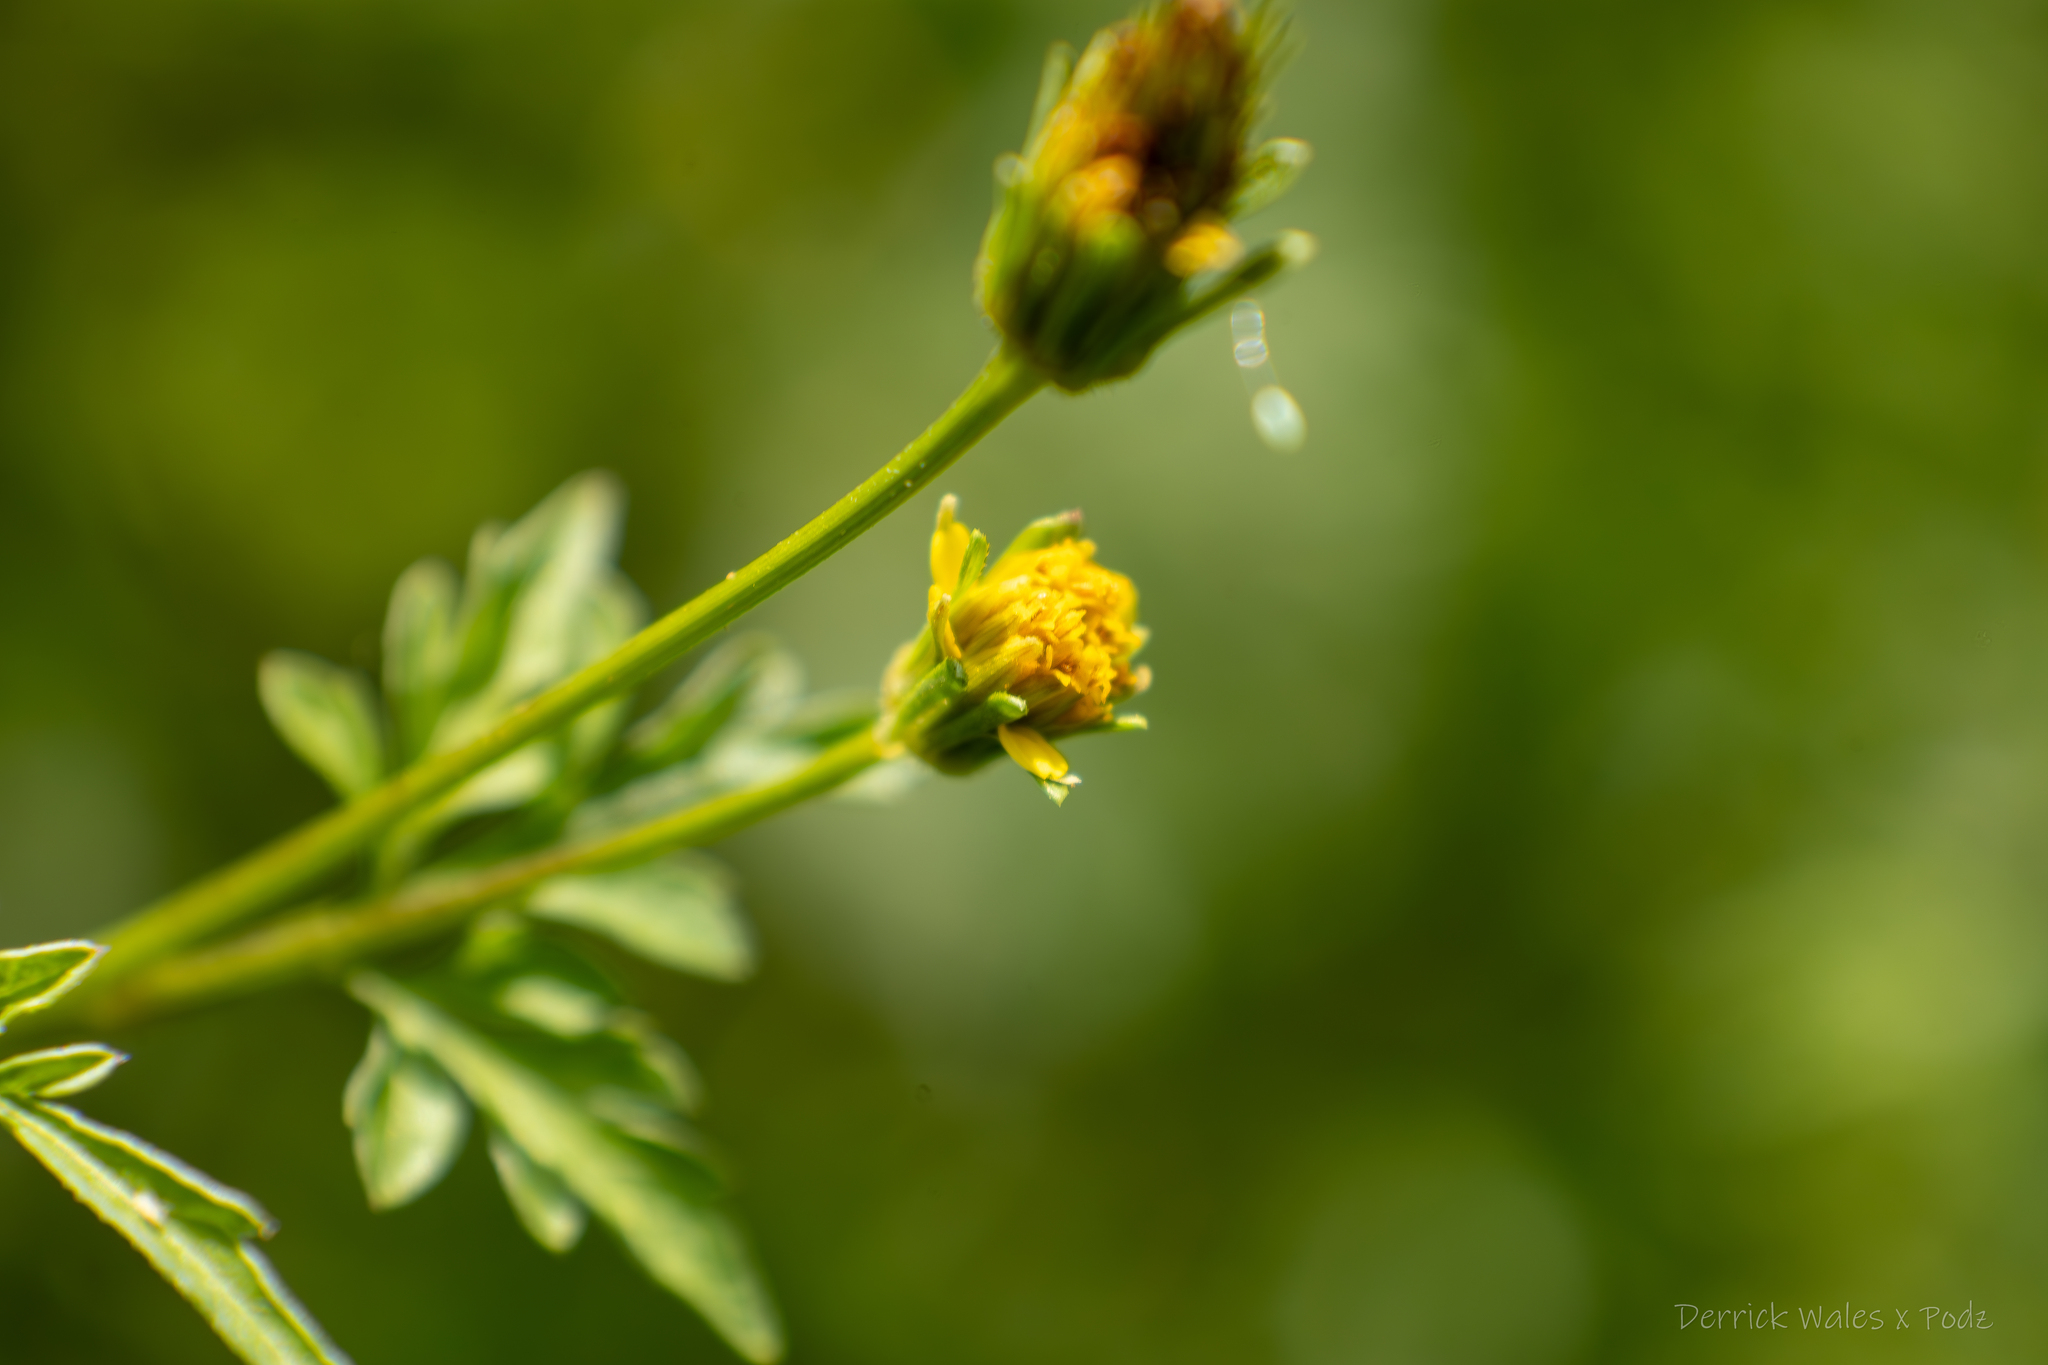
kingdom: Plantae
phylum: Tracheophyta
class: Magnoliopsida
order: Asterales
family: Asteraceae
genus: Bidens
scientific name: Bidens bipinnata
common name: Spanish-needles
